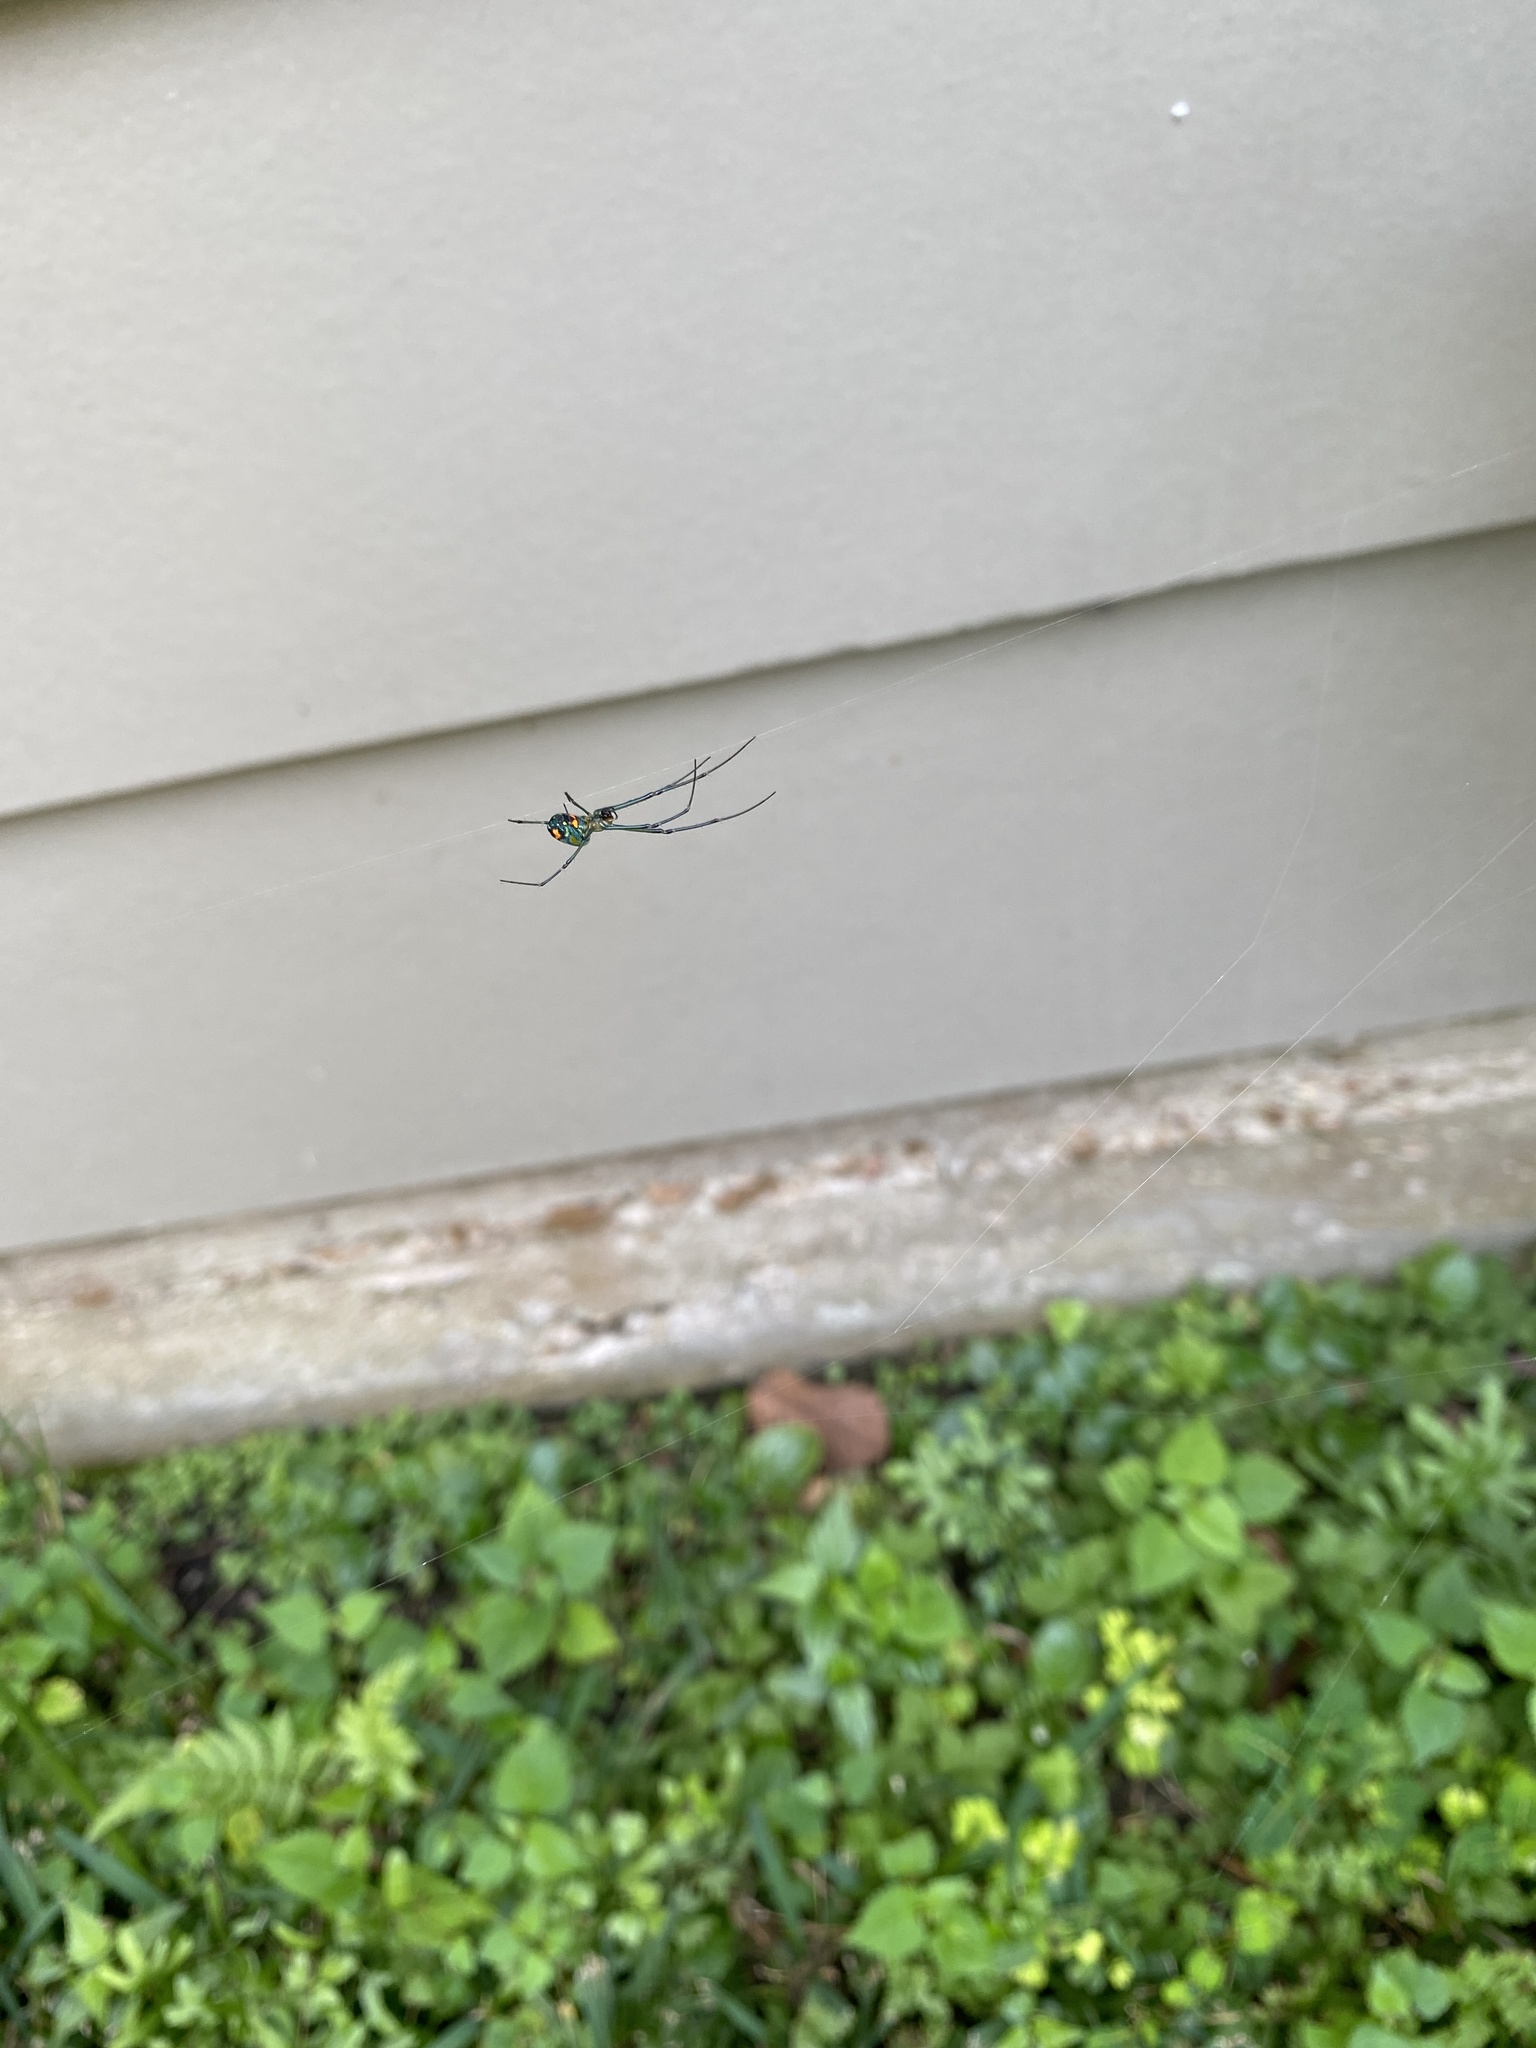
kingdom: Animalia
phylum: Arthropoda
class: Arachnida
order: Araneae
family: Tetragnathidae
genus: Leucauge
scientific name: Leucauge argyrobapta
